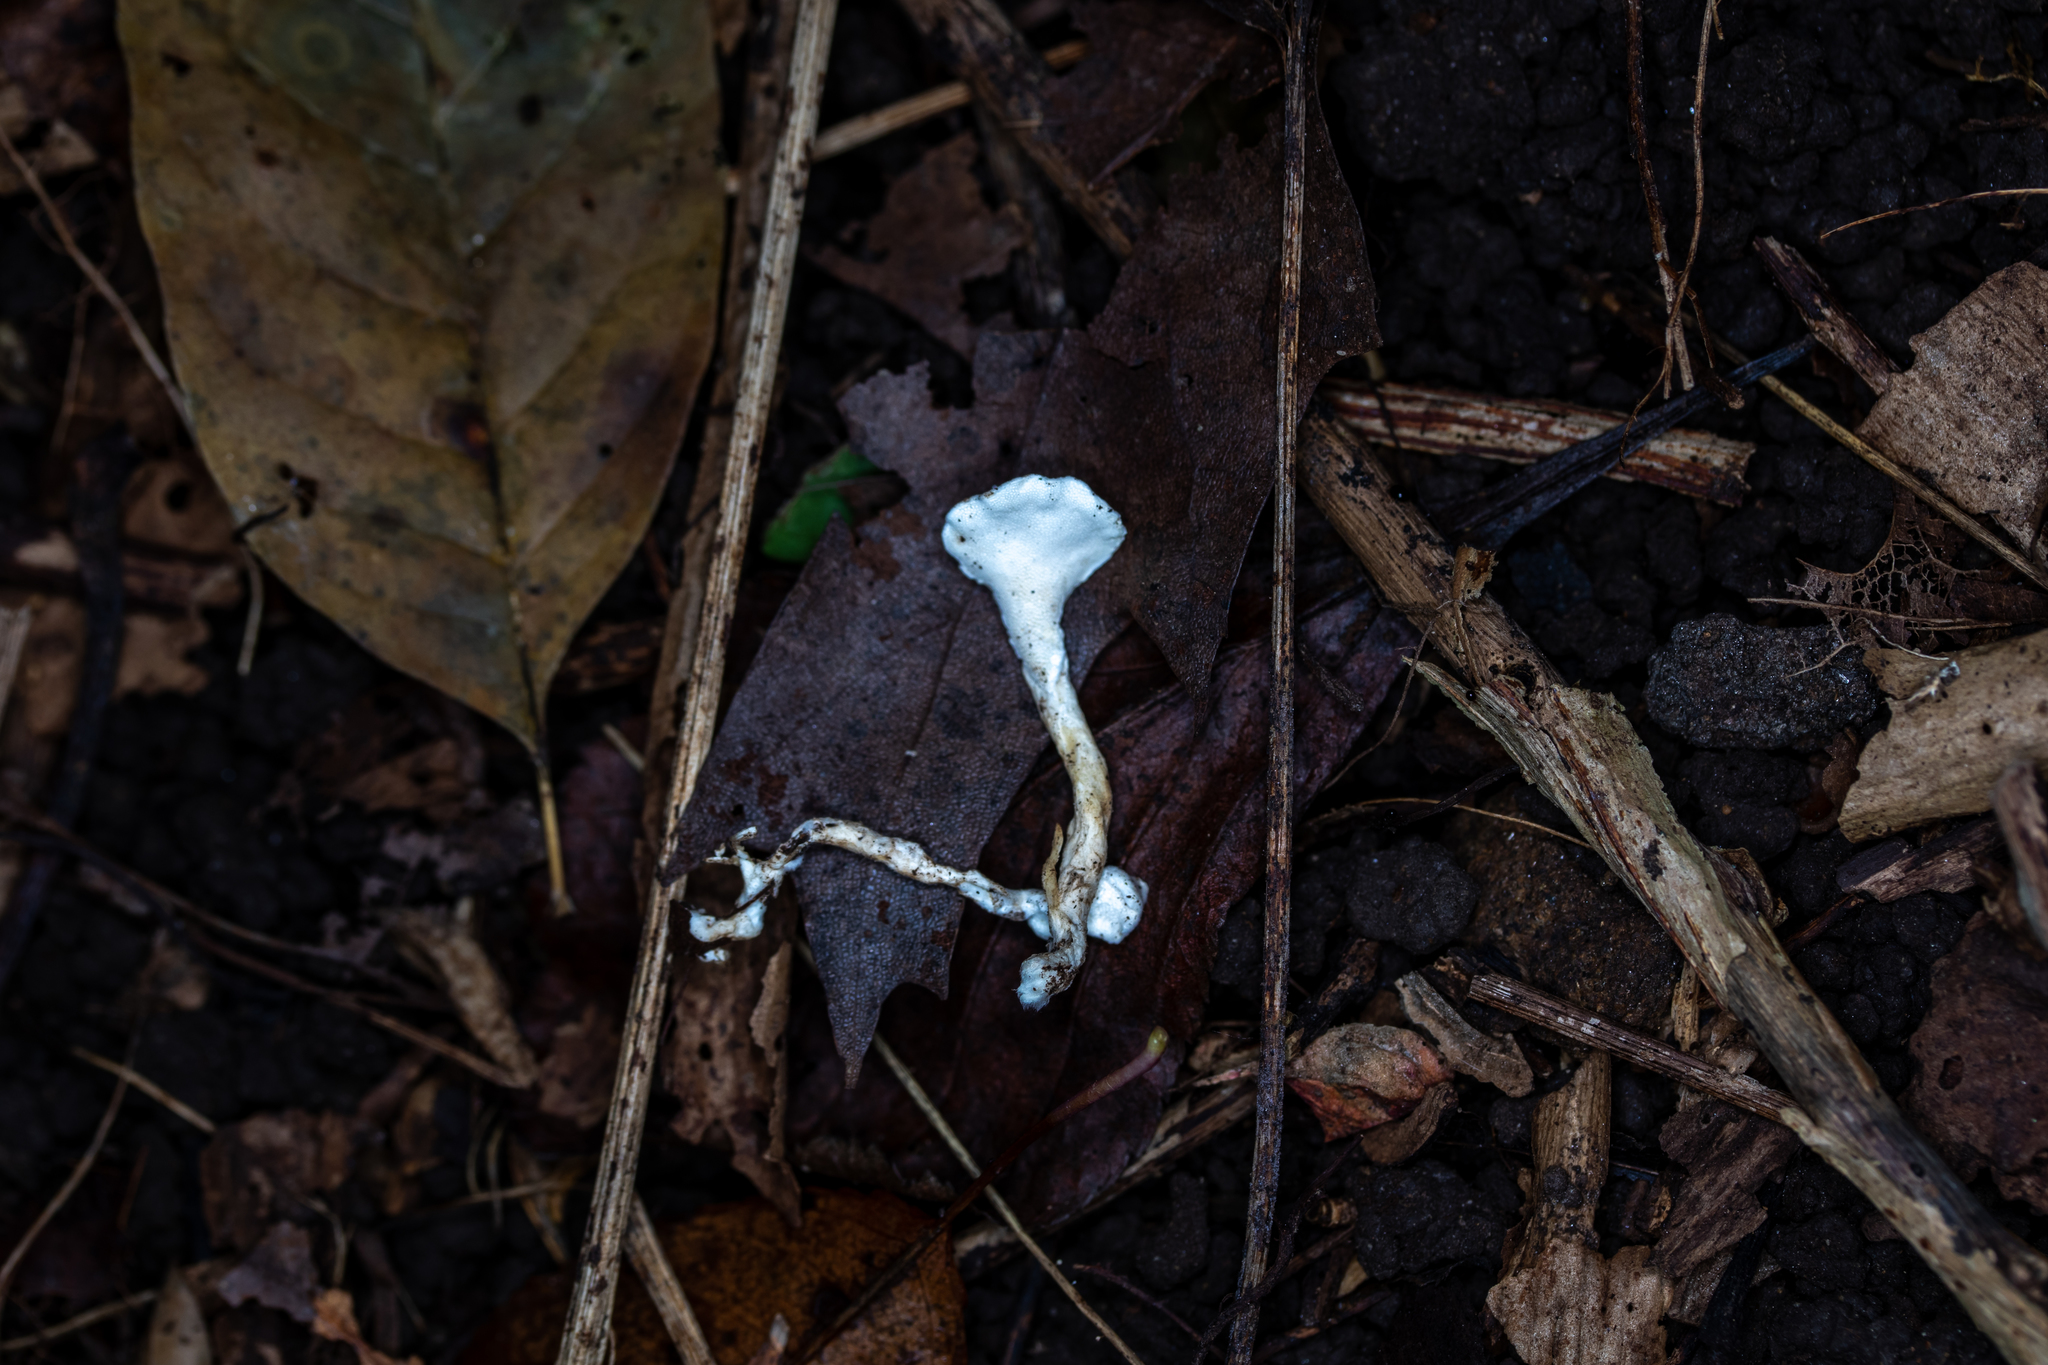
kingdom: Fungi
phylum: Basidiomycota
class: Agaricomycetes
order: Polyporales
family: Steccherinaceae
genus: Loweomyces
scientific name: Loweomyces fractipes
